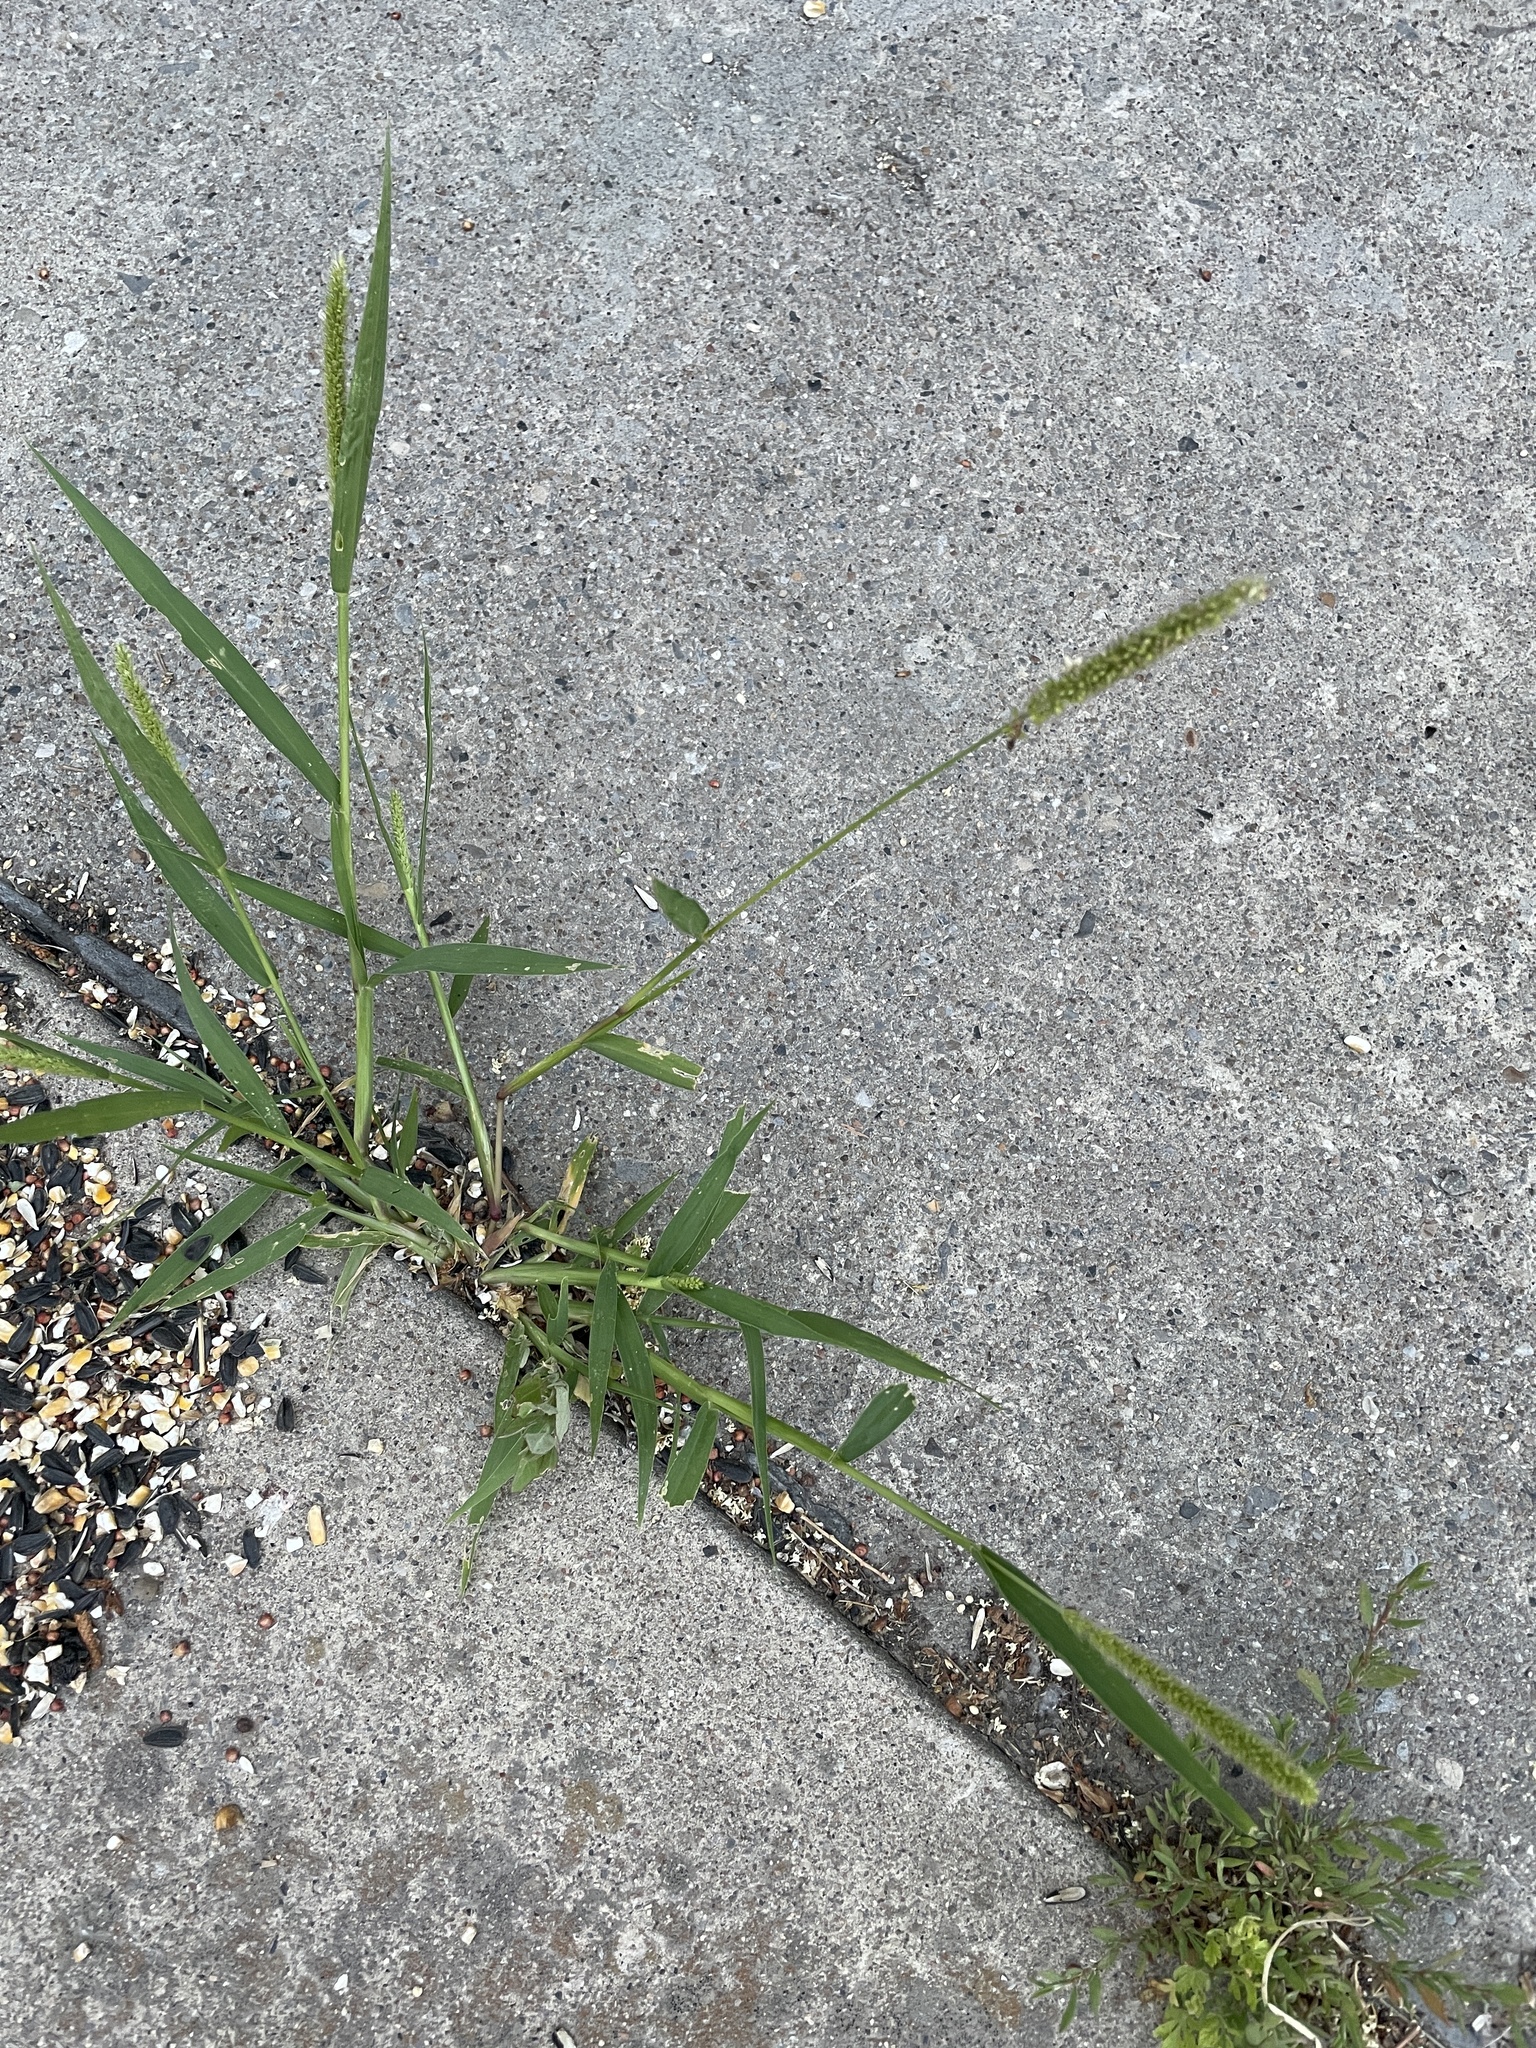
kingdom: Plantae
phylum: Tracheophyta
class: Liliopsida
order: Poales
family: Poaceae
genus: Setaria
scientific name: Setaria verticillata
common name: Hooked bristlegrass
